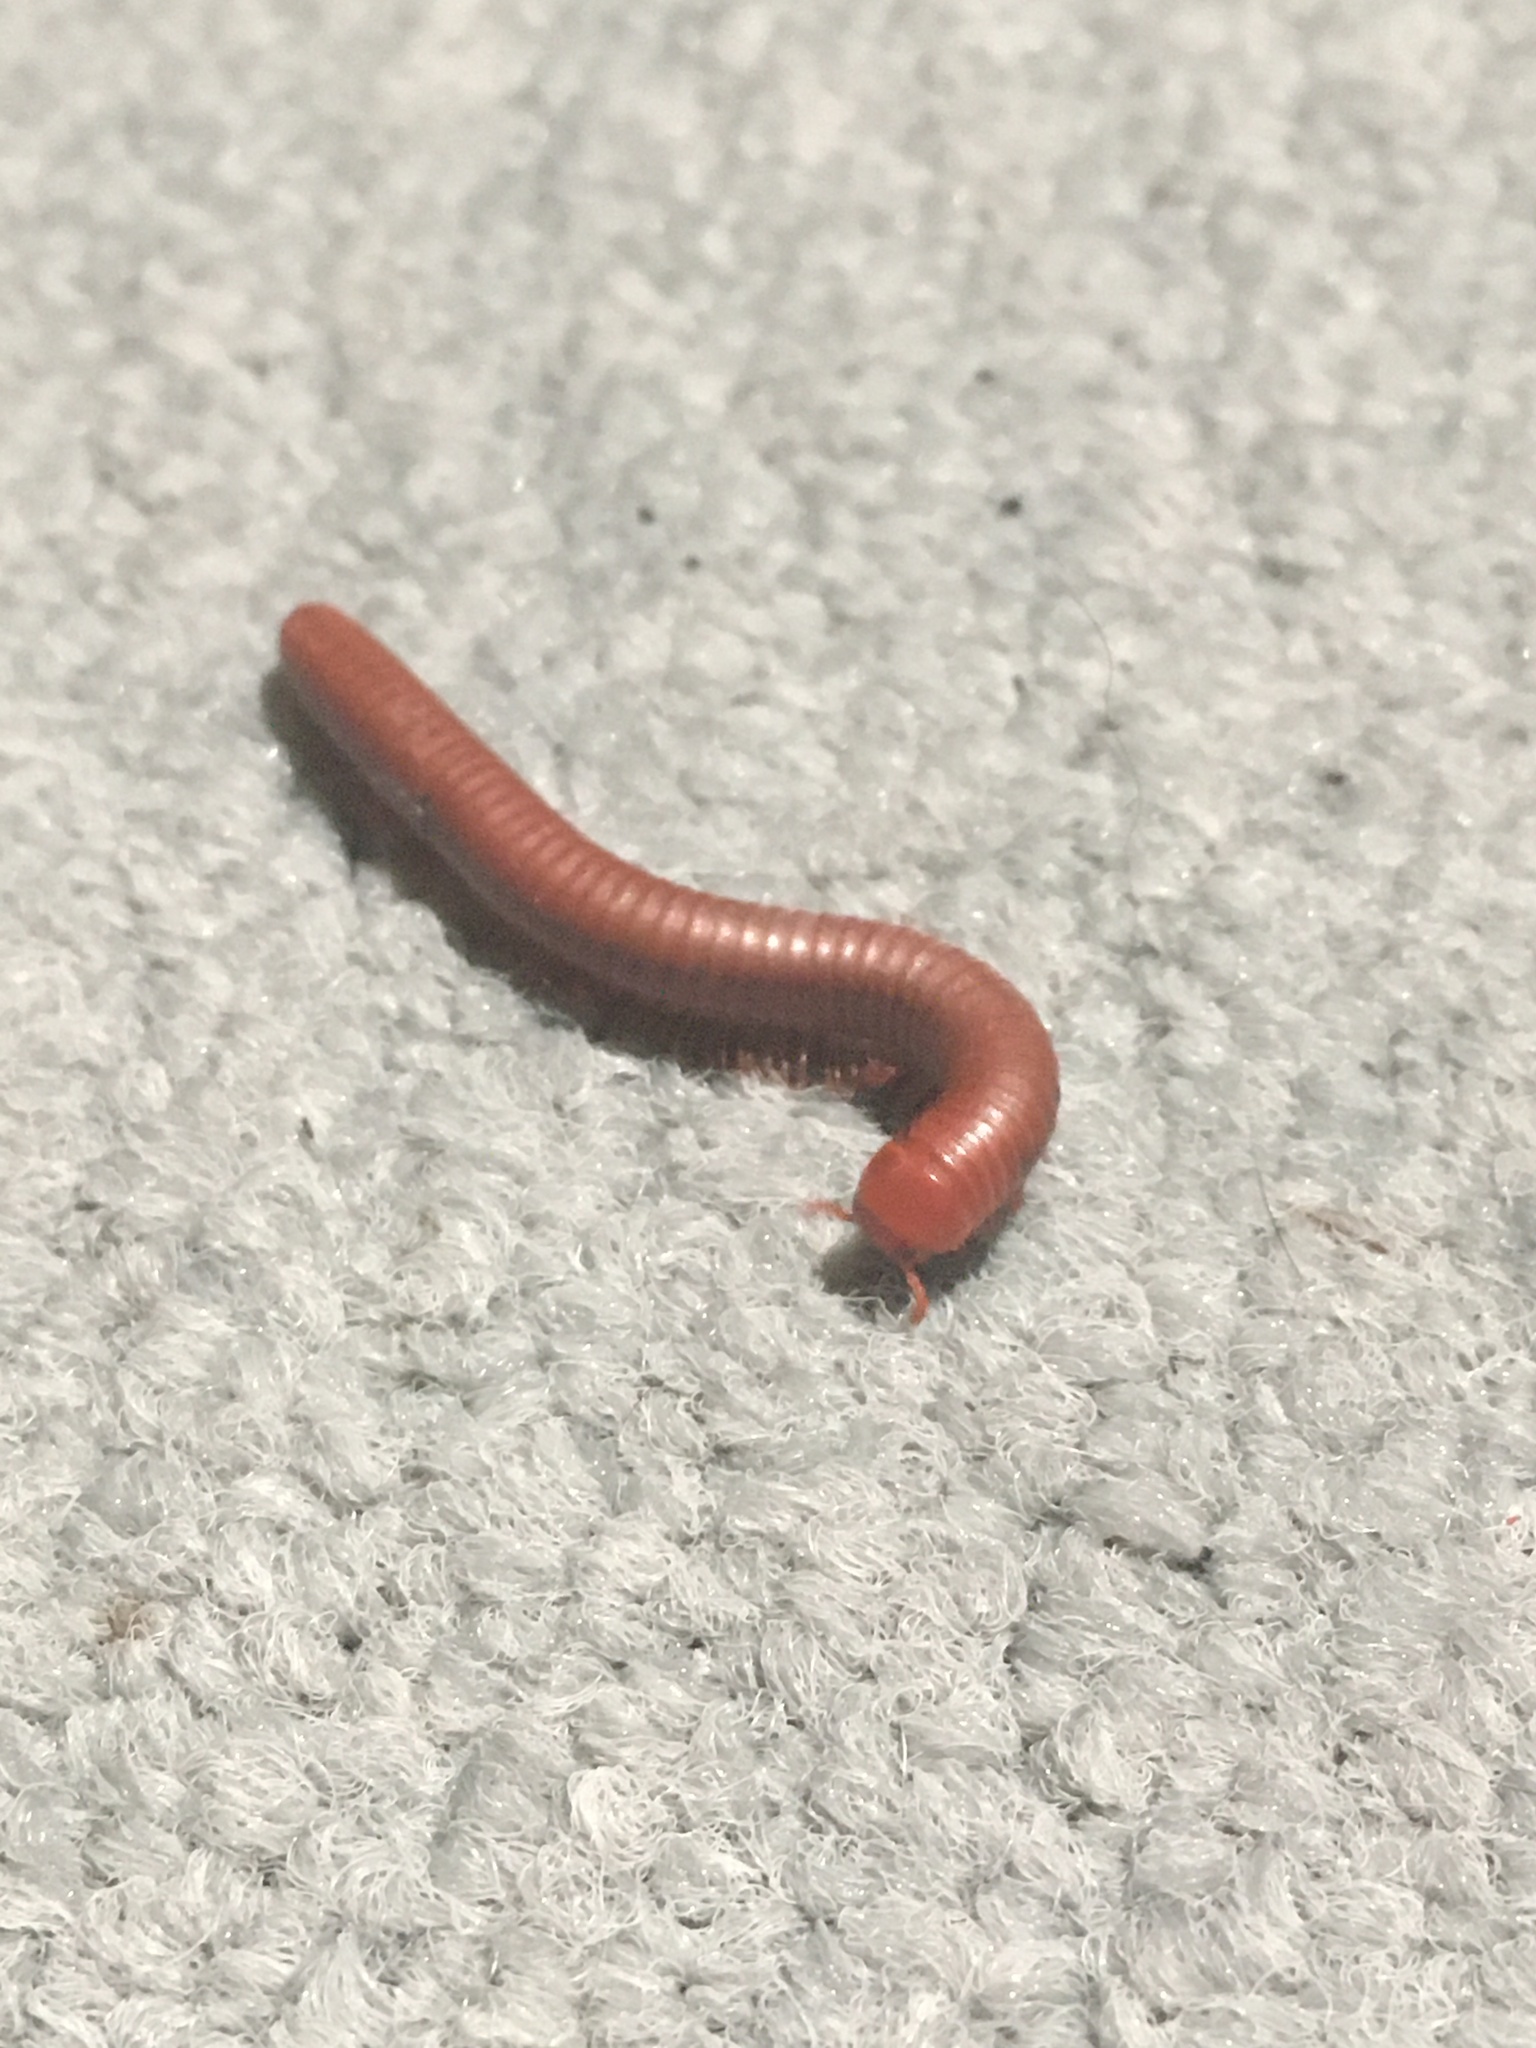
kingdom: Animalia
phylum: Arthropoda
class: Diplopoda
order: Spirobolida
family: Pachybolidae
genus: Trigoniulus
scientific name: Trigoniulus corallinus
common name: Millipede
